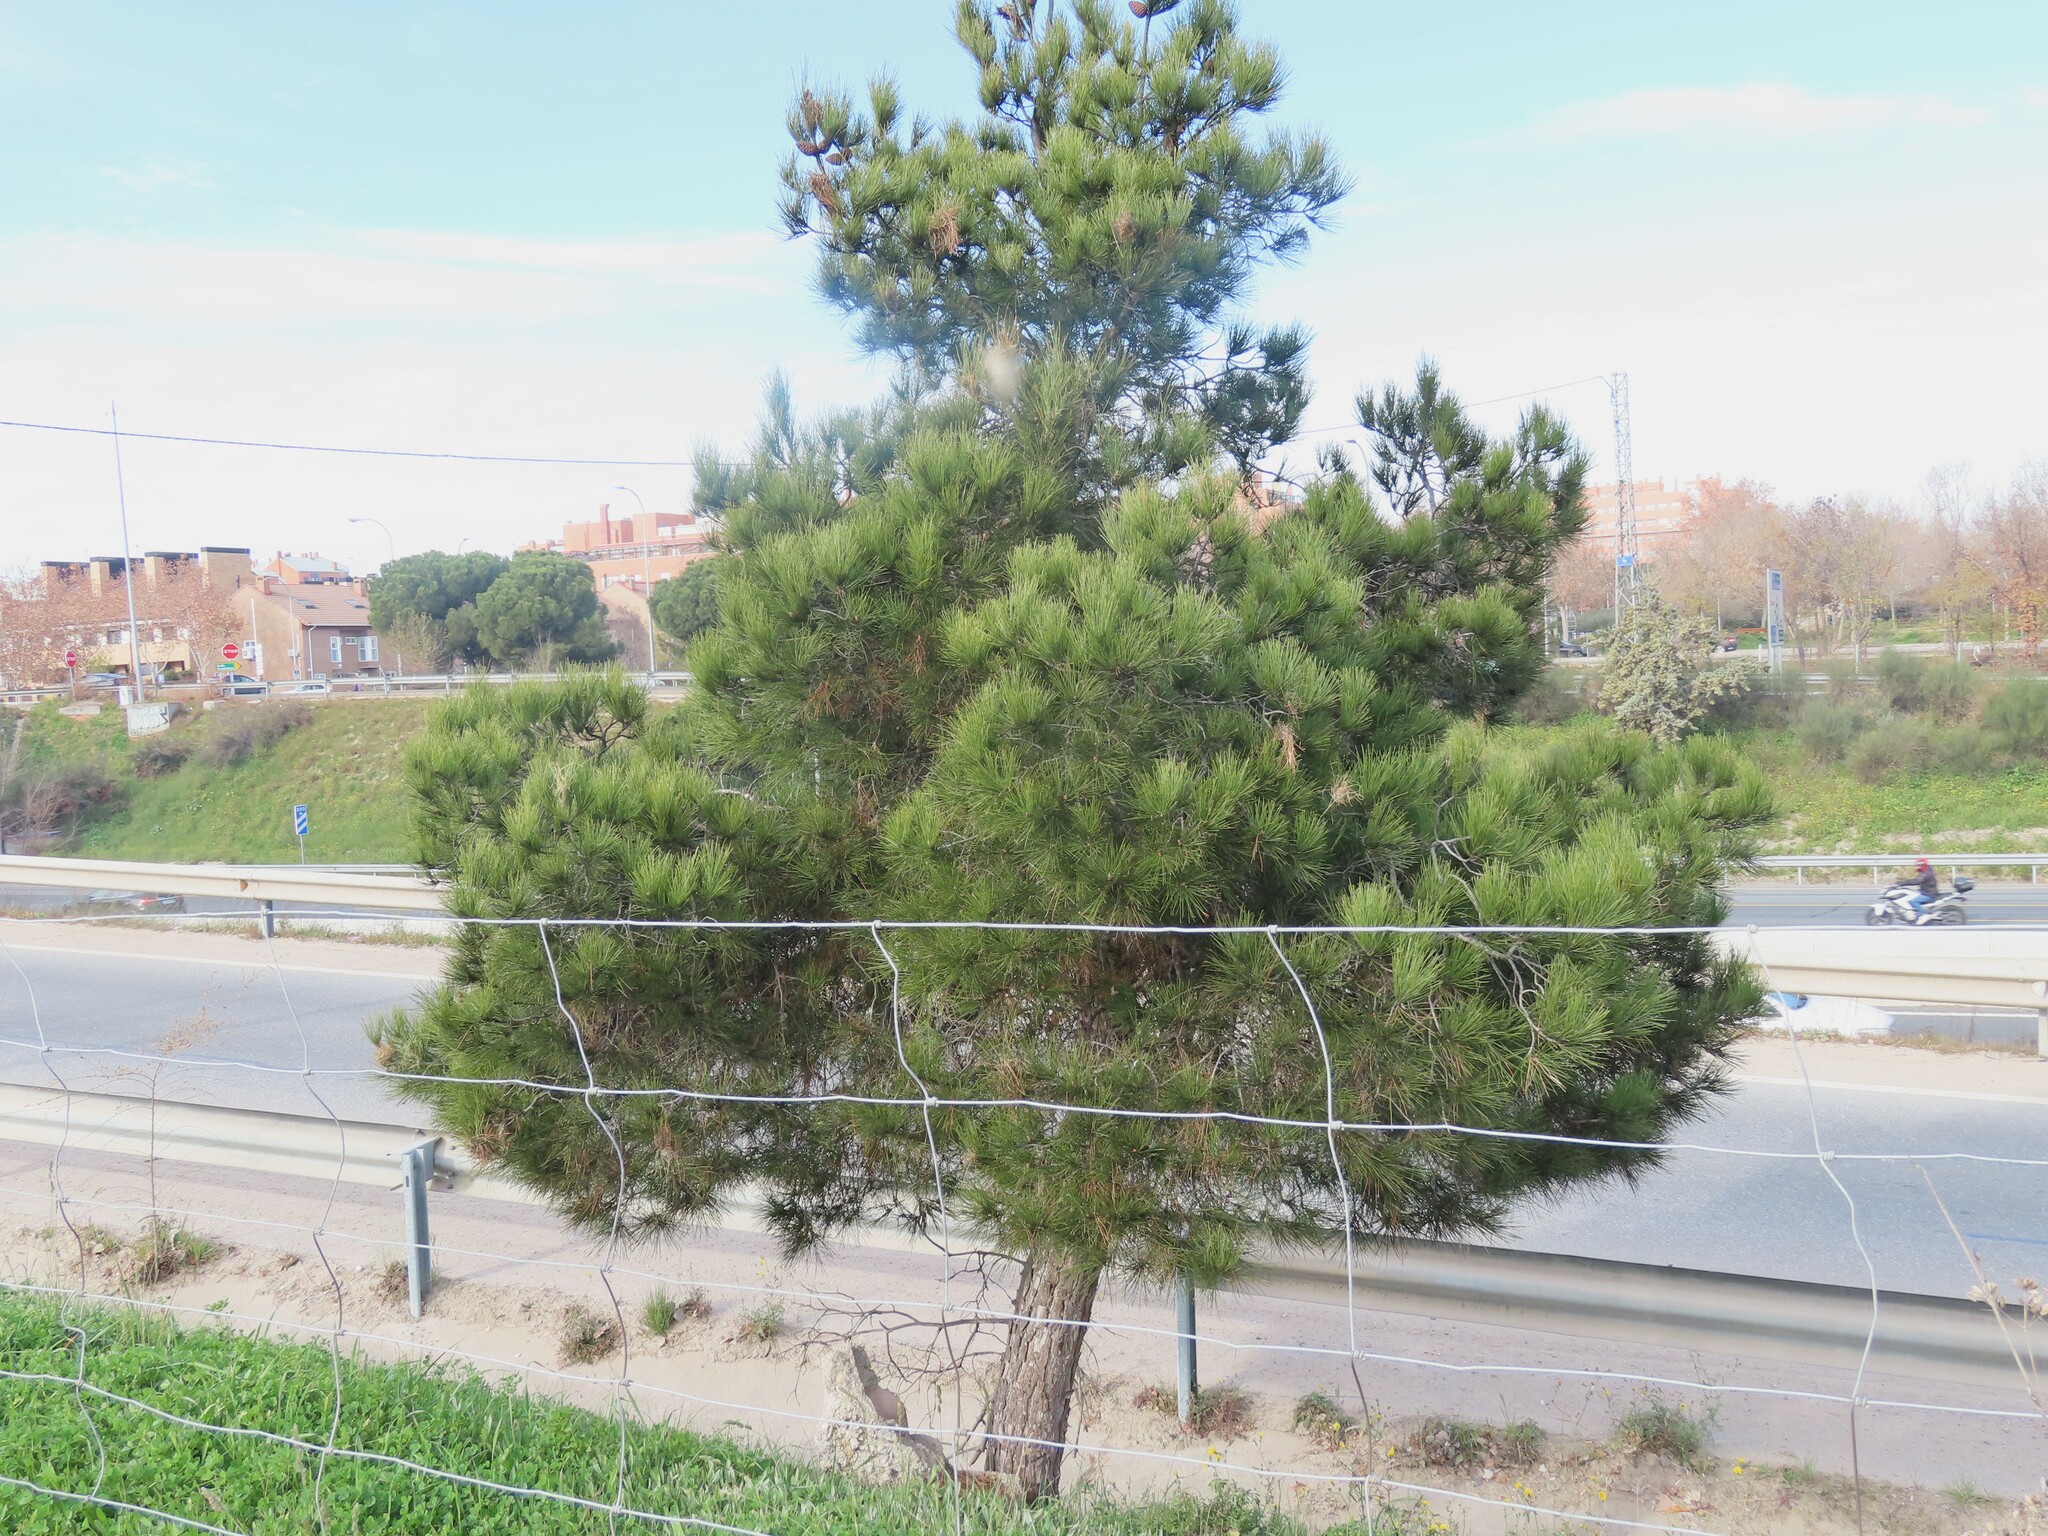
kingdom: Plantae
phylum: Tracheophyta
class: Pinopsida
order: Pinales
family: Pinaceae
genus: Pinus
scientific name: Pinus nigra
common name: Austrian pine
